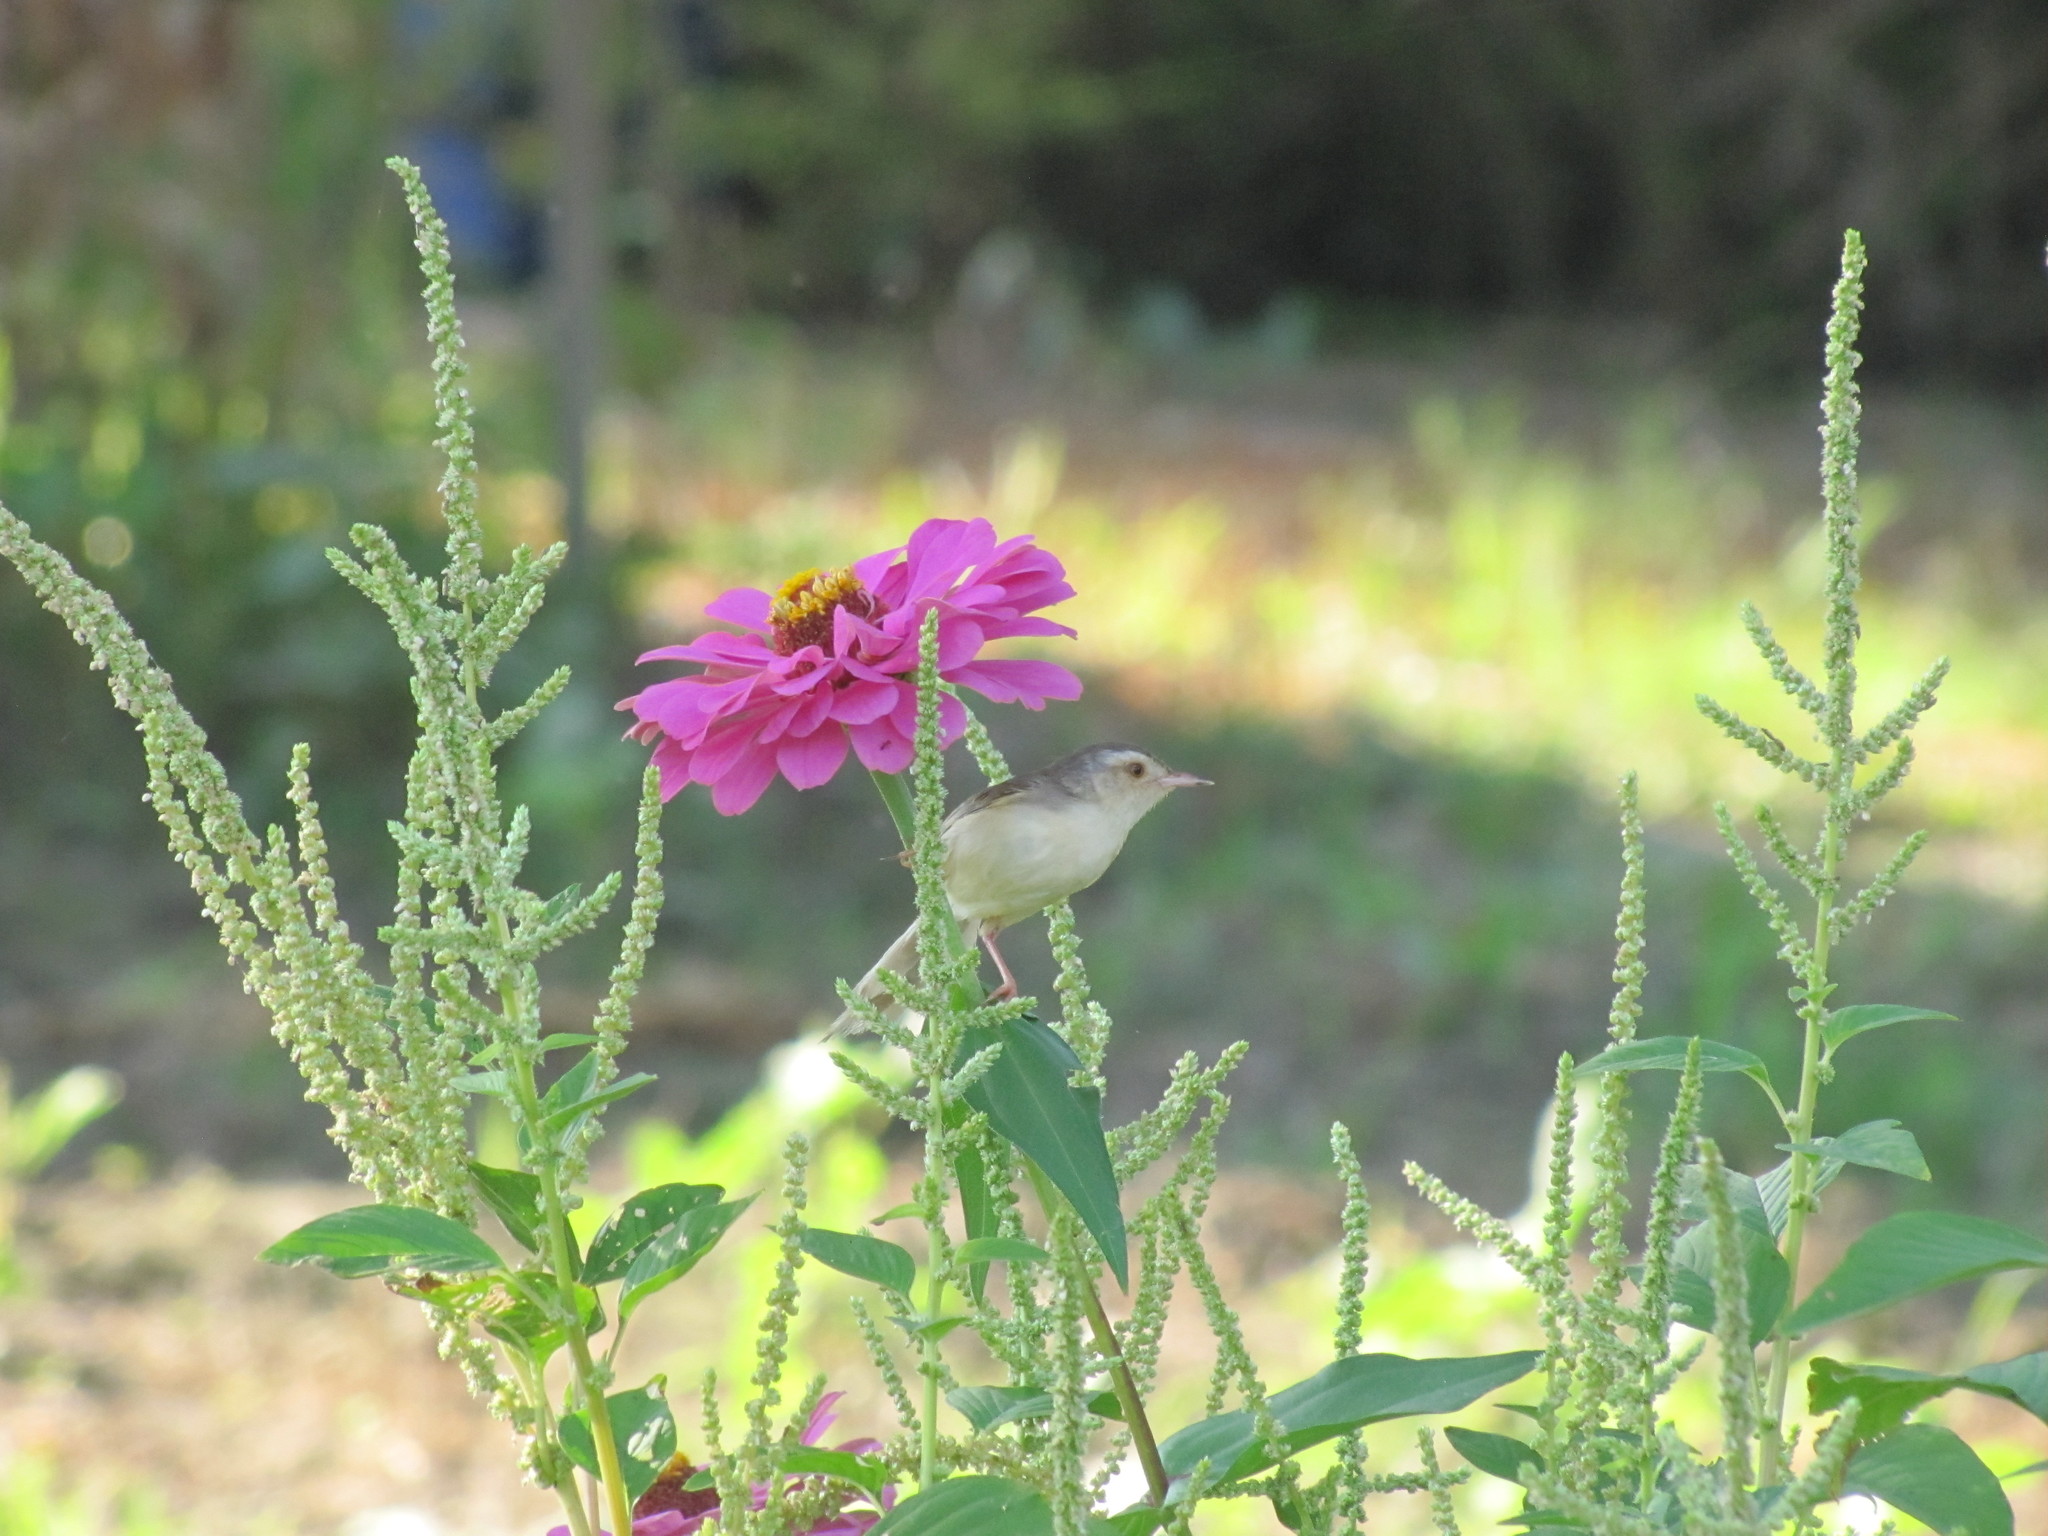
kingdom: Animalia
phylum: Chordata
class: Aves
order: Passeriformes
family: Cisticolidae
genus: Prinia
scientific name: Prinia inornata
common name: Plain prinia
